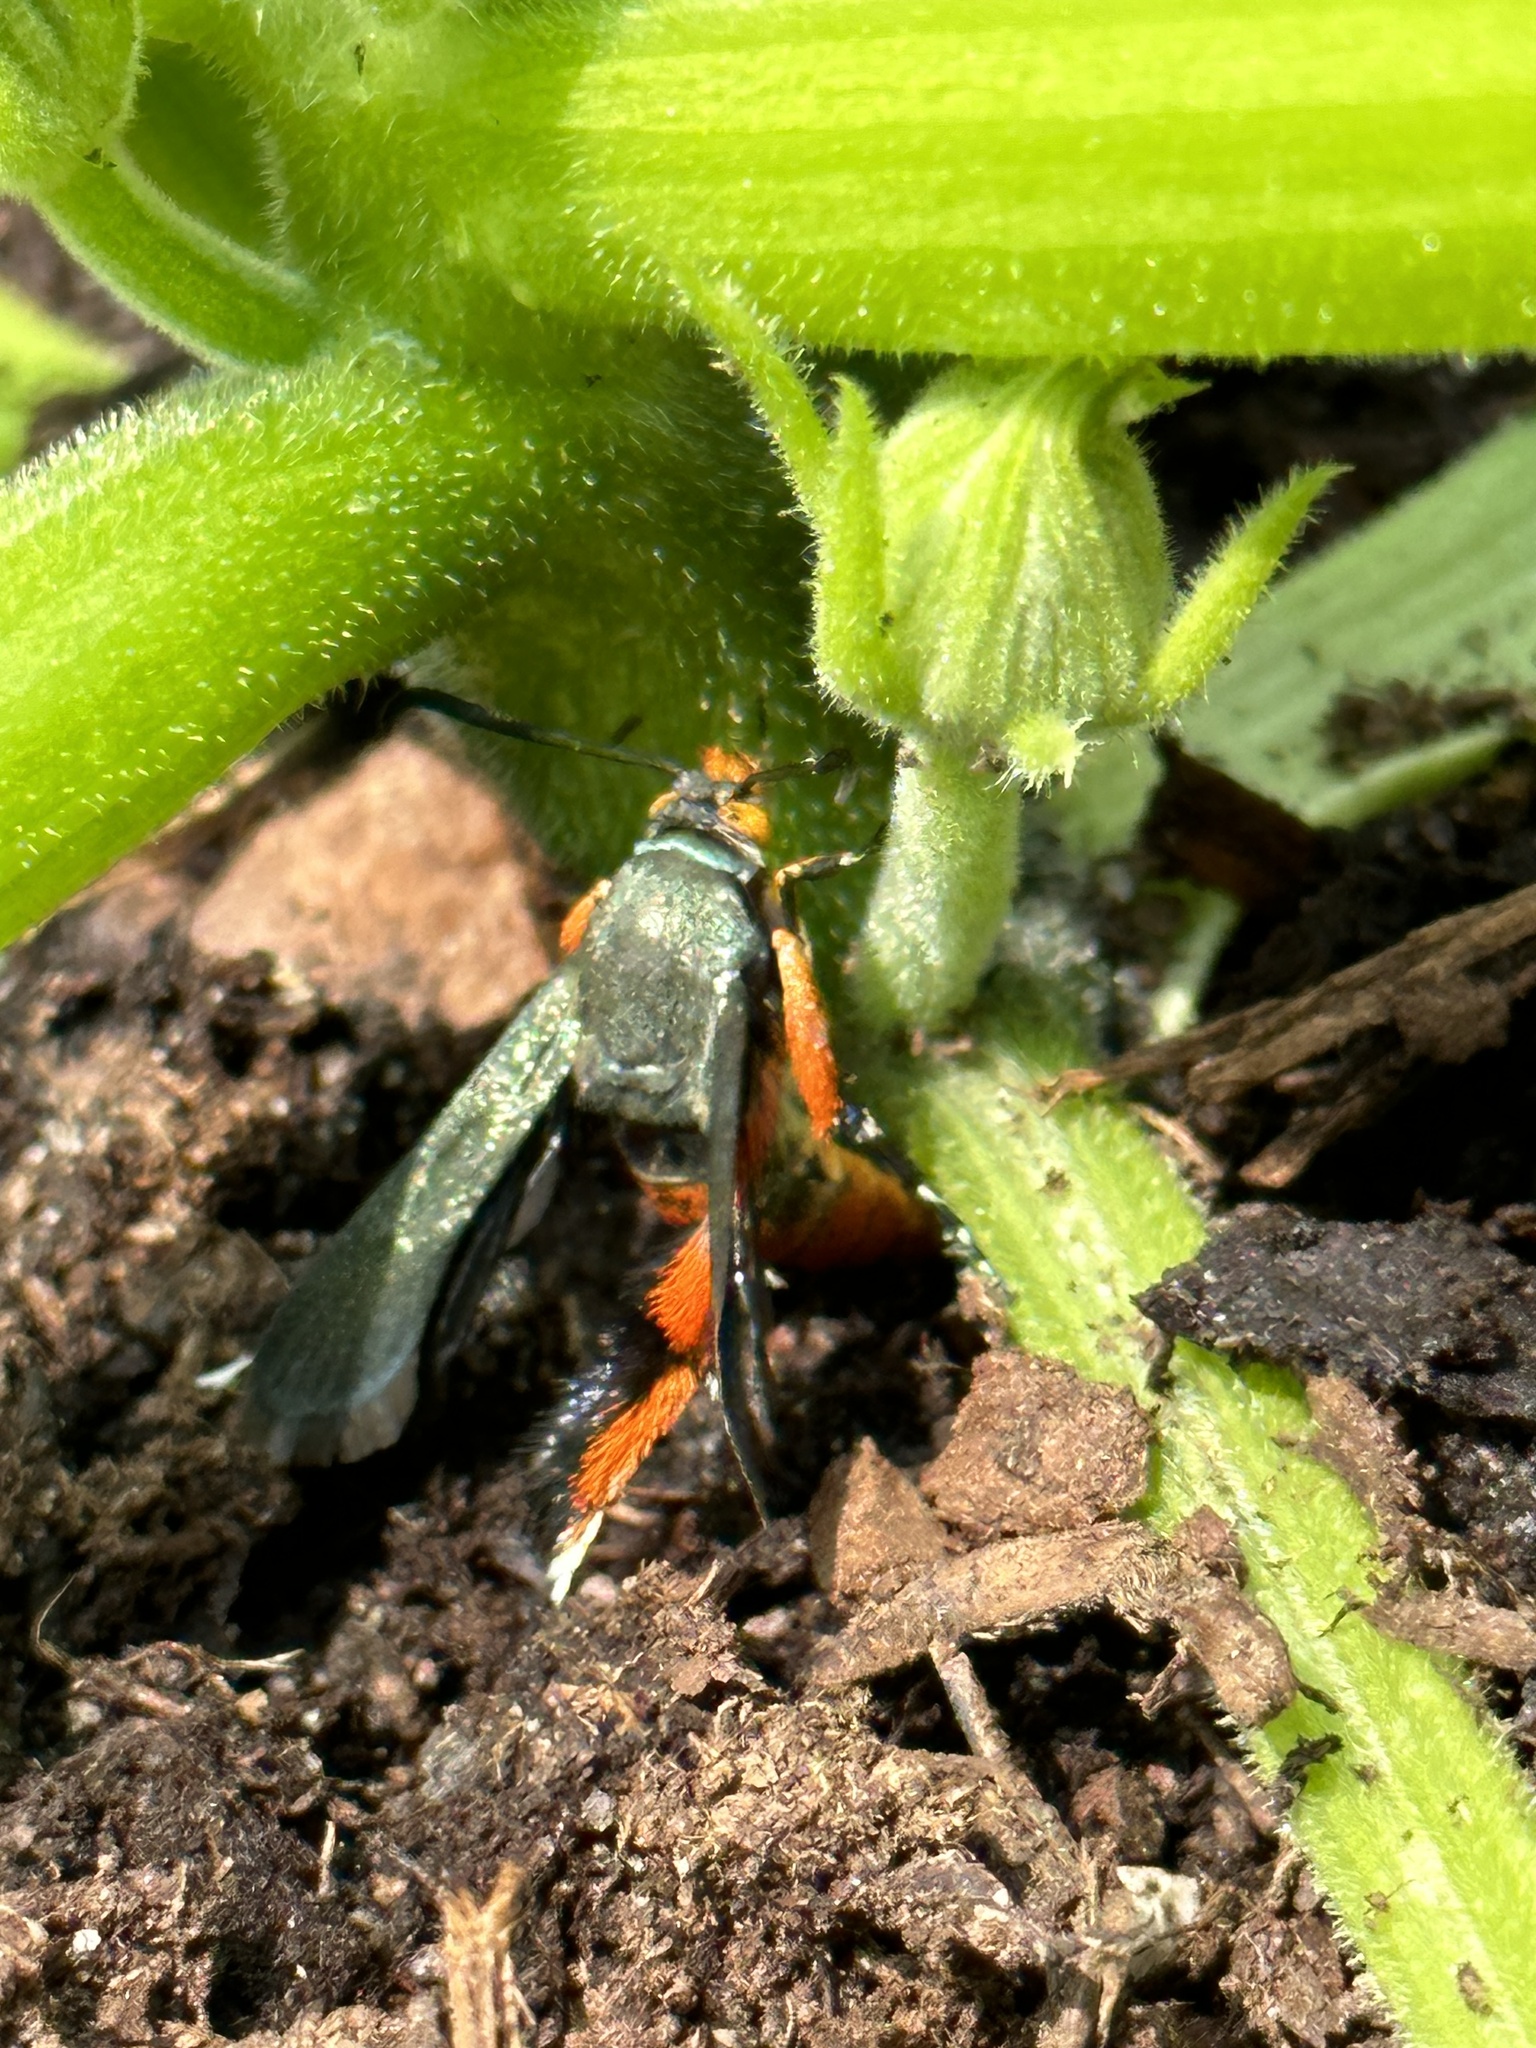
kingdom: Animalia
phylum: Arthropoda
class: Insecta
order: Lepidoptera
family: Sesiidae
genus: Eichlinia
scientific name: Eichlinia cucurbitae
